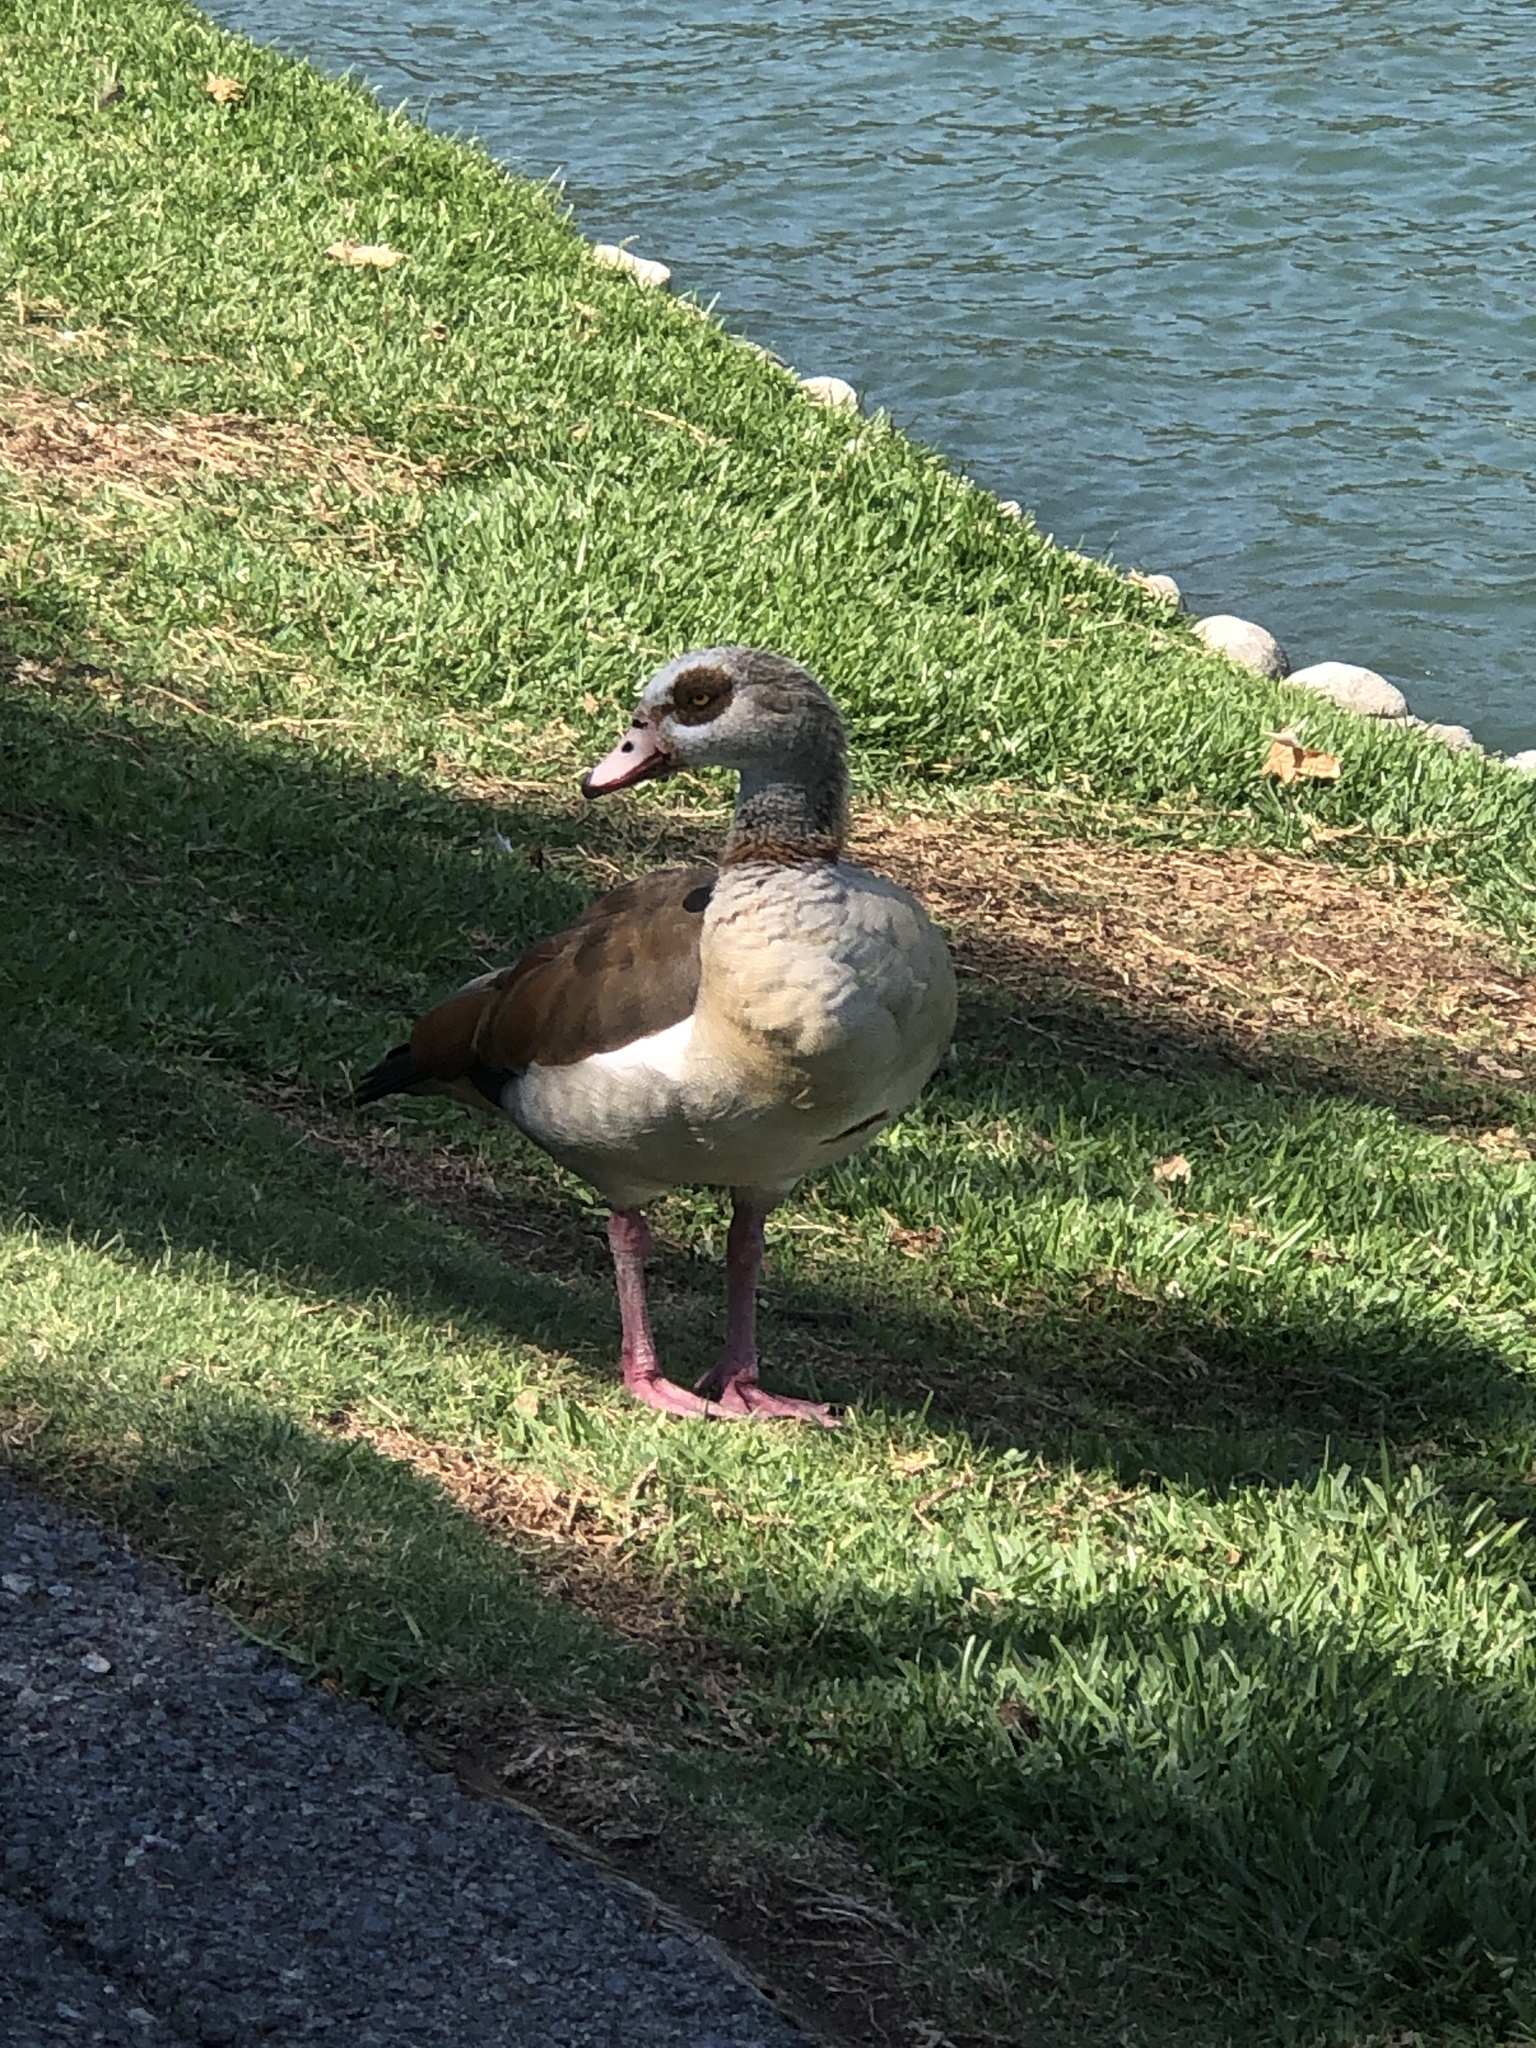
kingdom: Animalia
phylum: Chordata
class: Aves
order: Anseriformes
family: Anatidae
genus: Alopochen
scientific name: Alopochen aegyptiaca
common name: Egyptian goose
